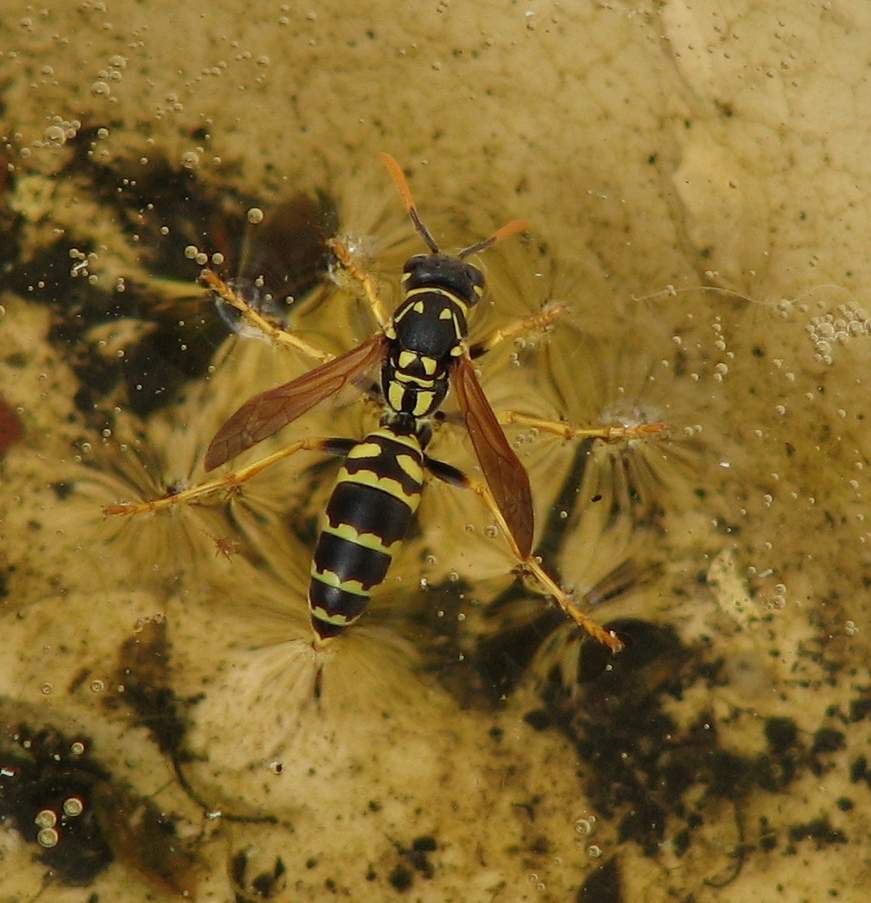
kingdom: Animalia
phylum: Arthropoda
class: Insecta
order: Hymenoptera
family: Eumenidae
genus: Polistes
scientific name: Polistes dominula
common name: Paper wasp
